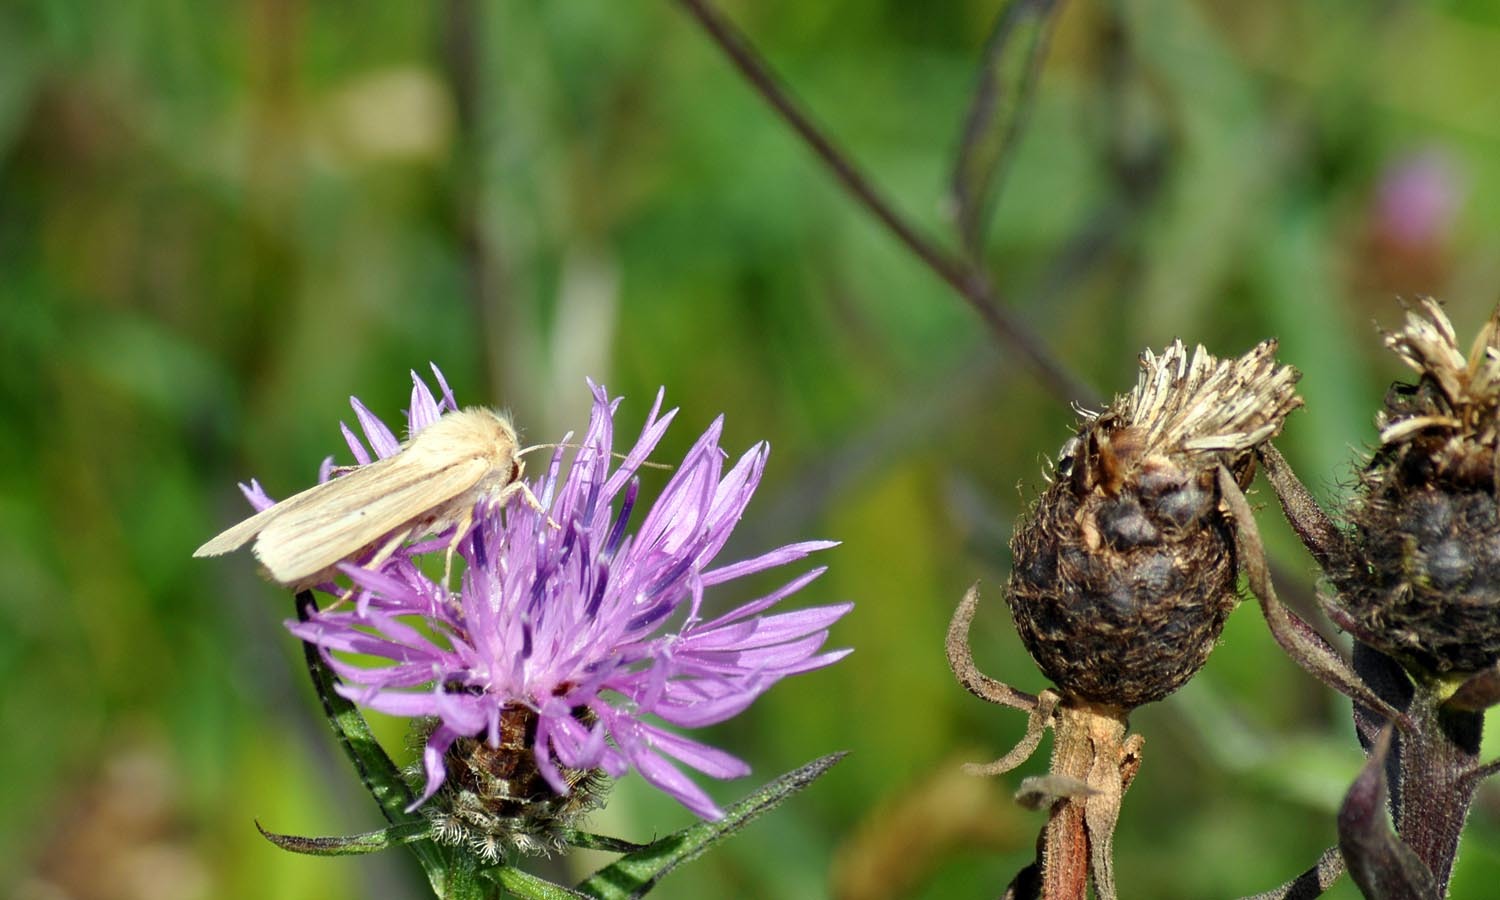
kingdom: Animalia
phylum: Arthropoda
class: Insecta
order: Lepidoptera
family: Noctuidae
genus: Mythimna
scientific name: Mythimna impura
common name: Smoky wainscot
